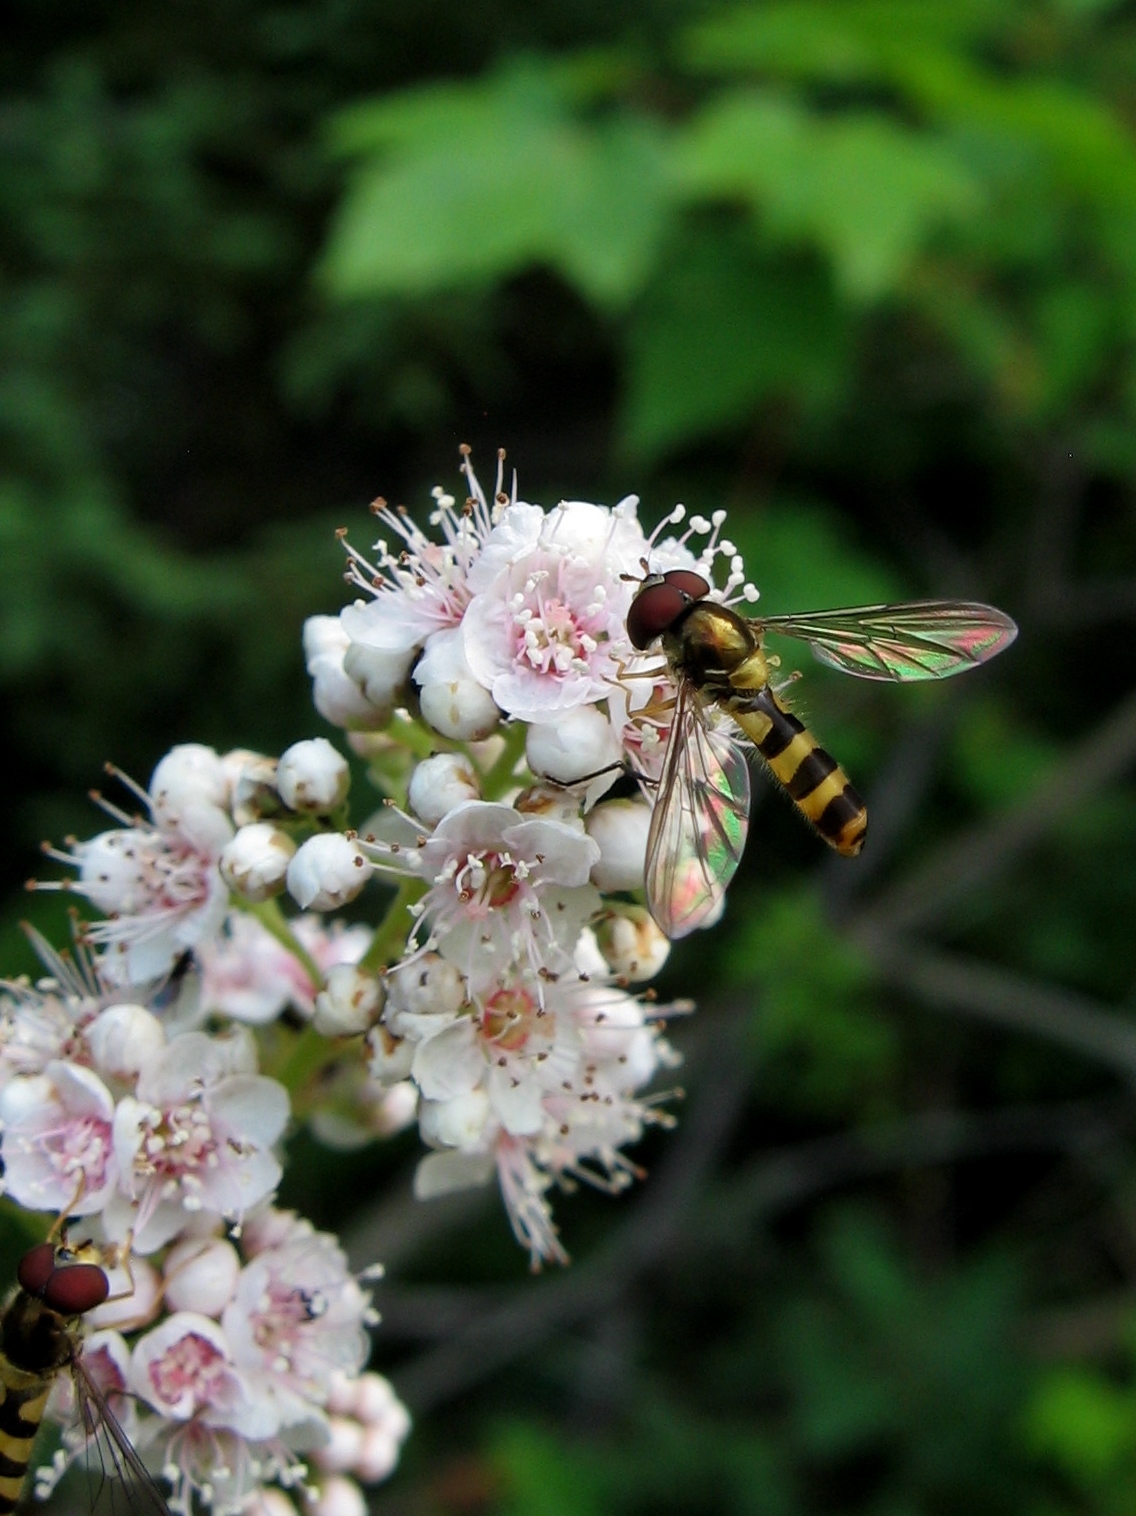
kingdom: Animalia
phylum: Arthropoda
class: Insecta
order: Diptera
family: Syrphidae
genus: Meliscaeva
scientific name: Meliscaeva cinctella
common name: American thintail fly
